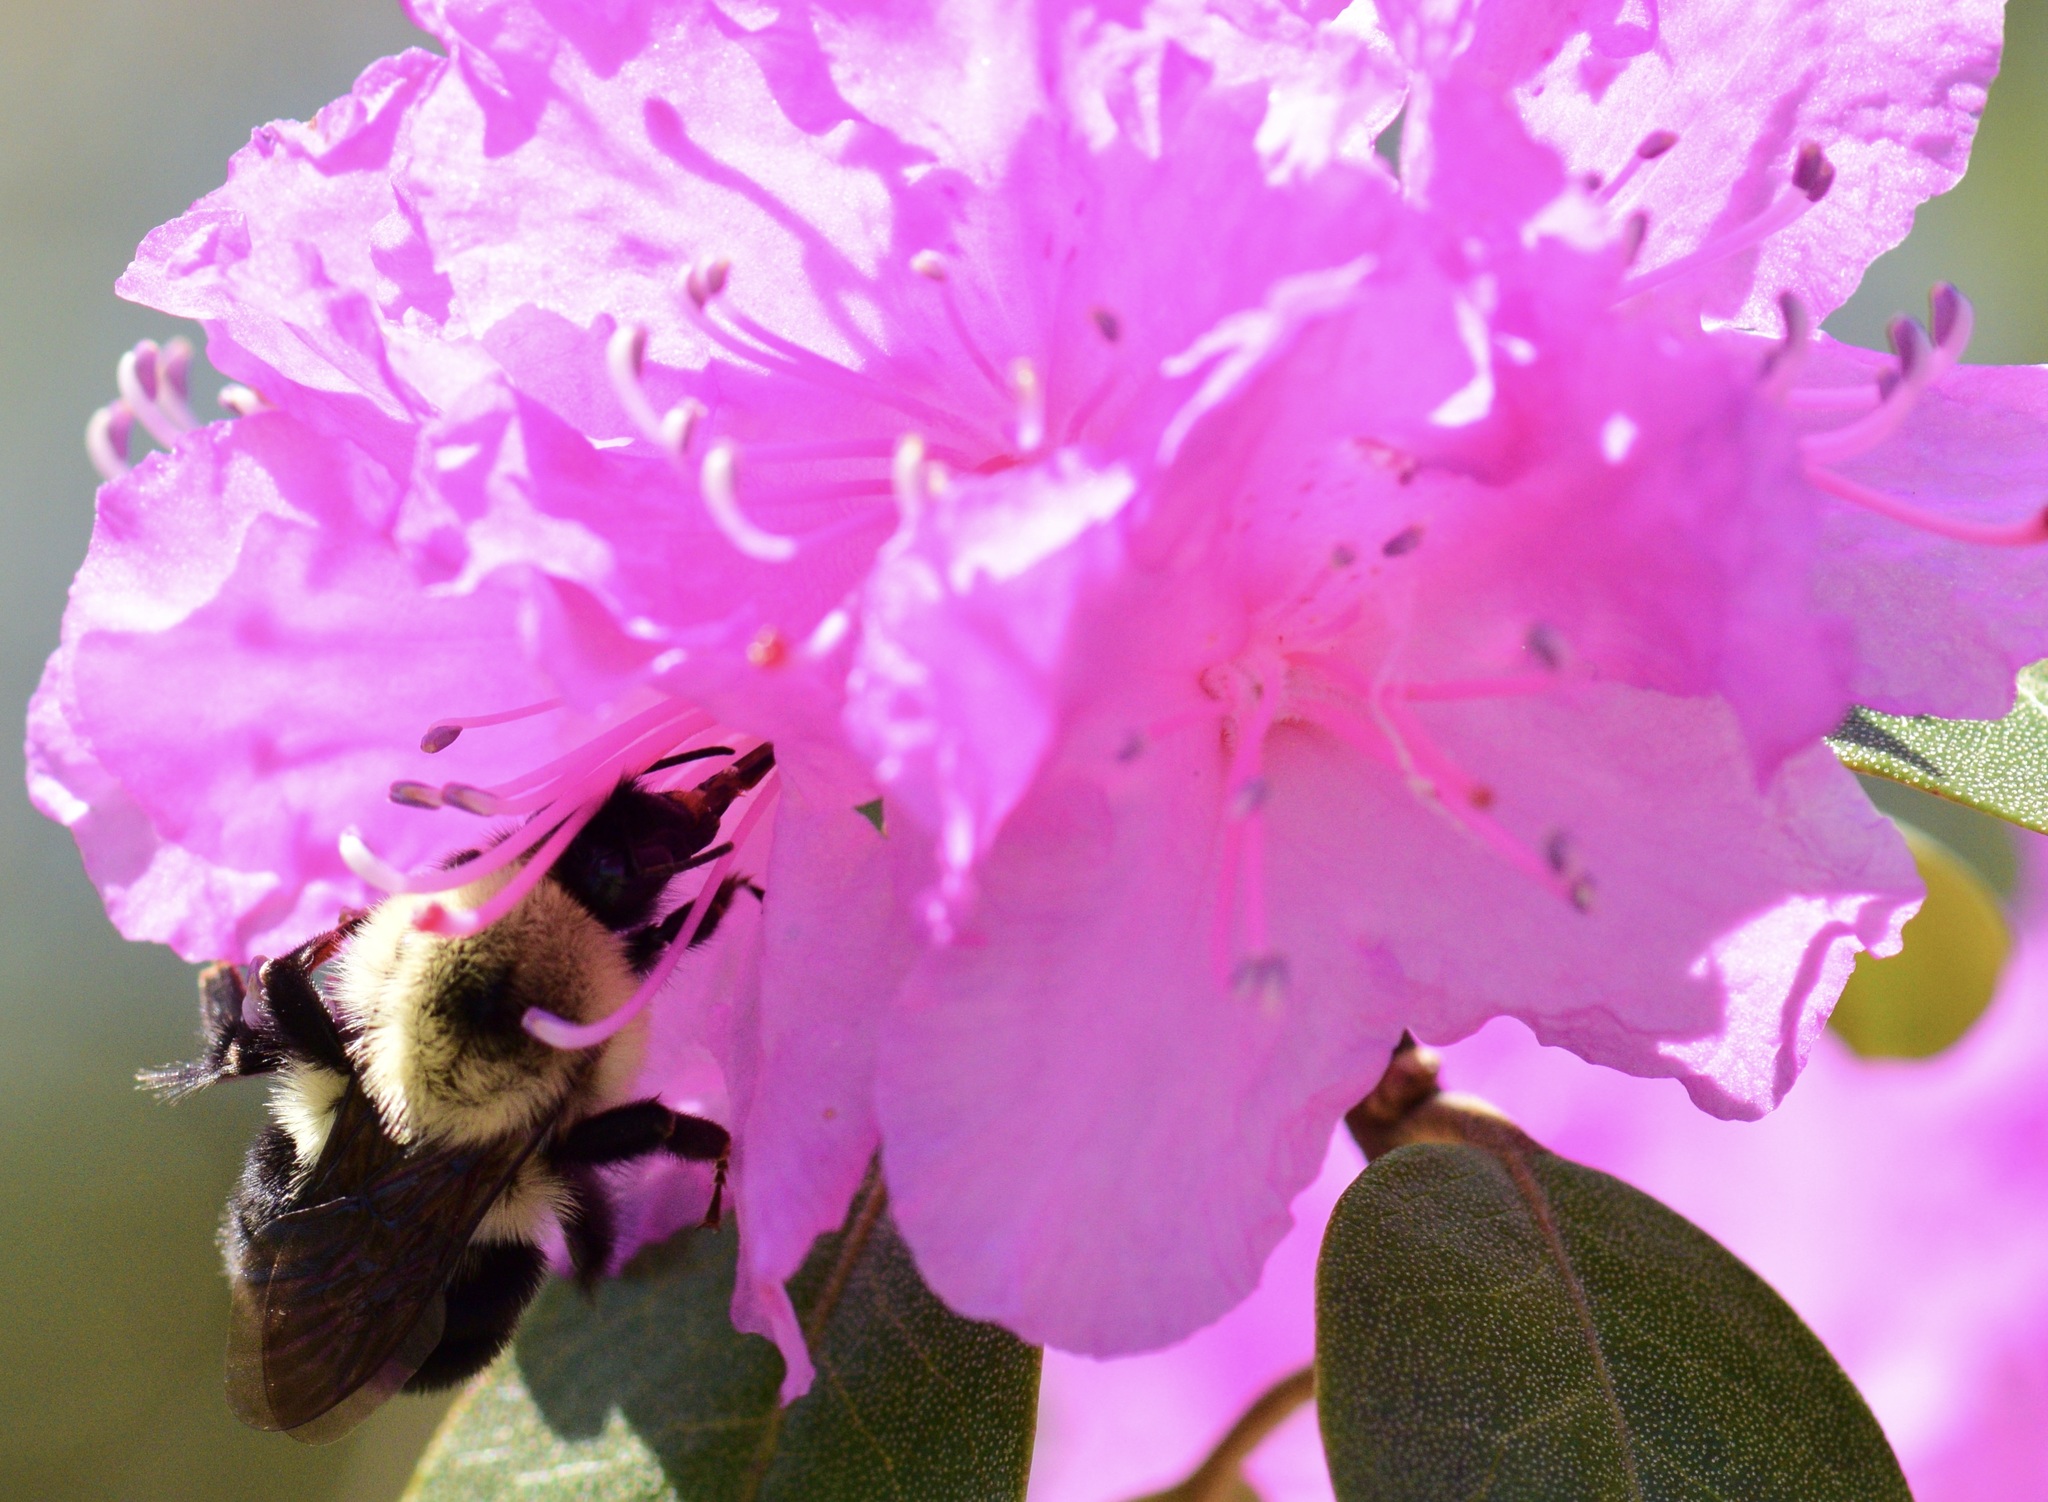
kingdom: Animalia
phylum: Arthropoda
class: Insecta
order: Hymenoptera
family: Apidae
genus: Bombus
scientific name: Bombus bimaculatus
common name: Two-spotted bumble bee
